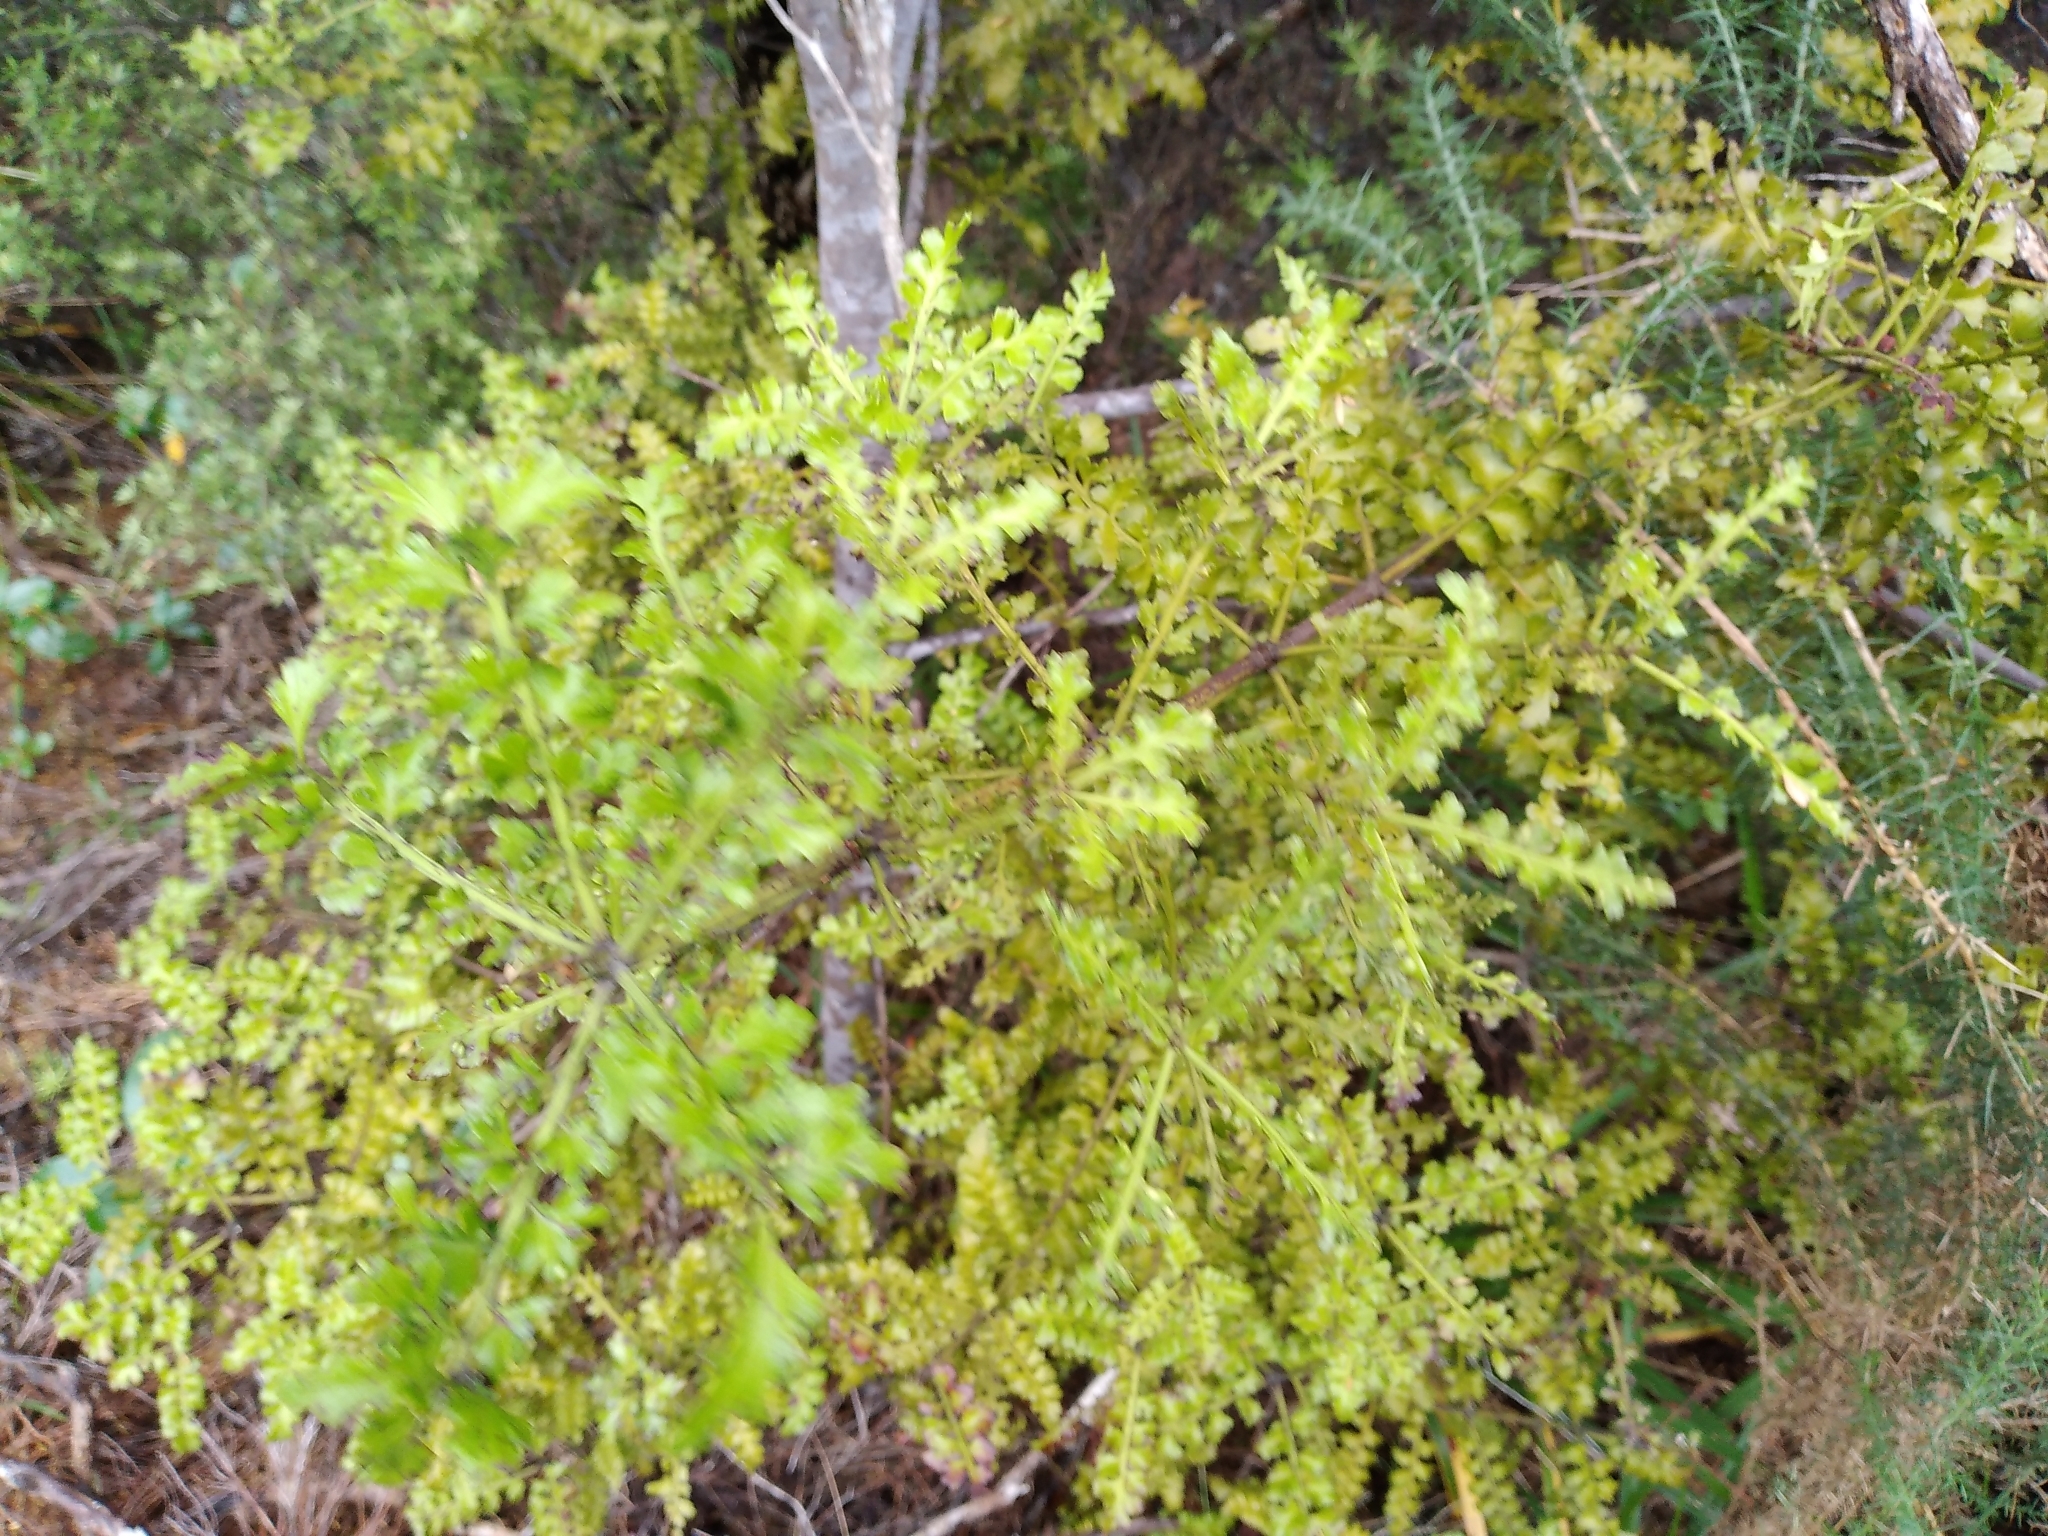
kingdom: Plantae
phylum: Tracheophyta
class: Pinopsida
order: Pinales
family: Phyllocladaceae
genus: Phyllocladus
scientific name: Phyllocladus trichomanoides
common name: Celery pine
